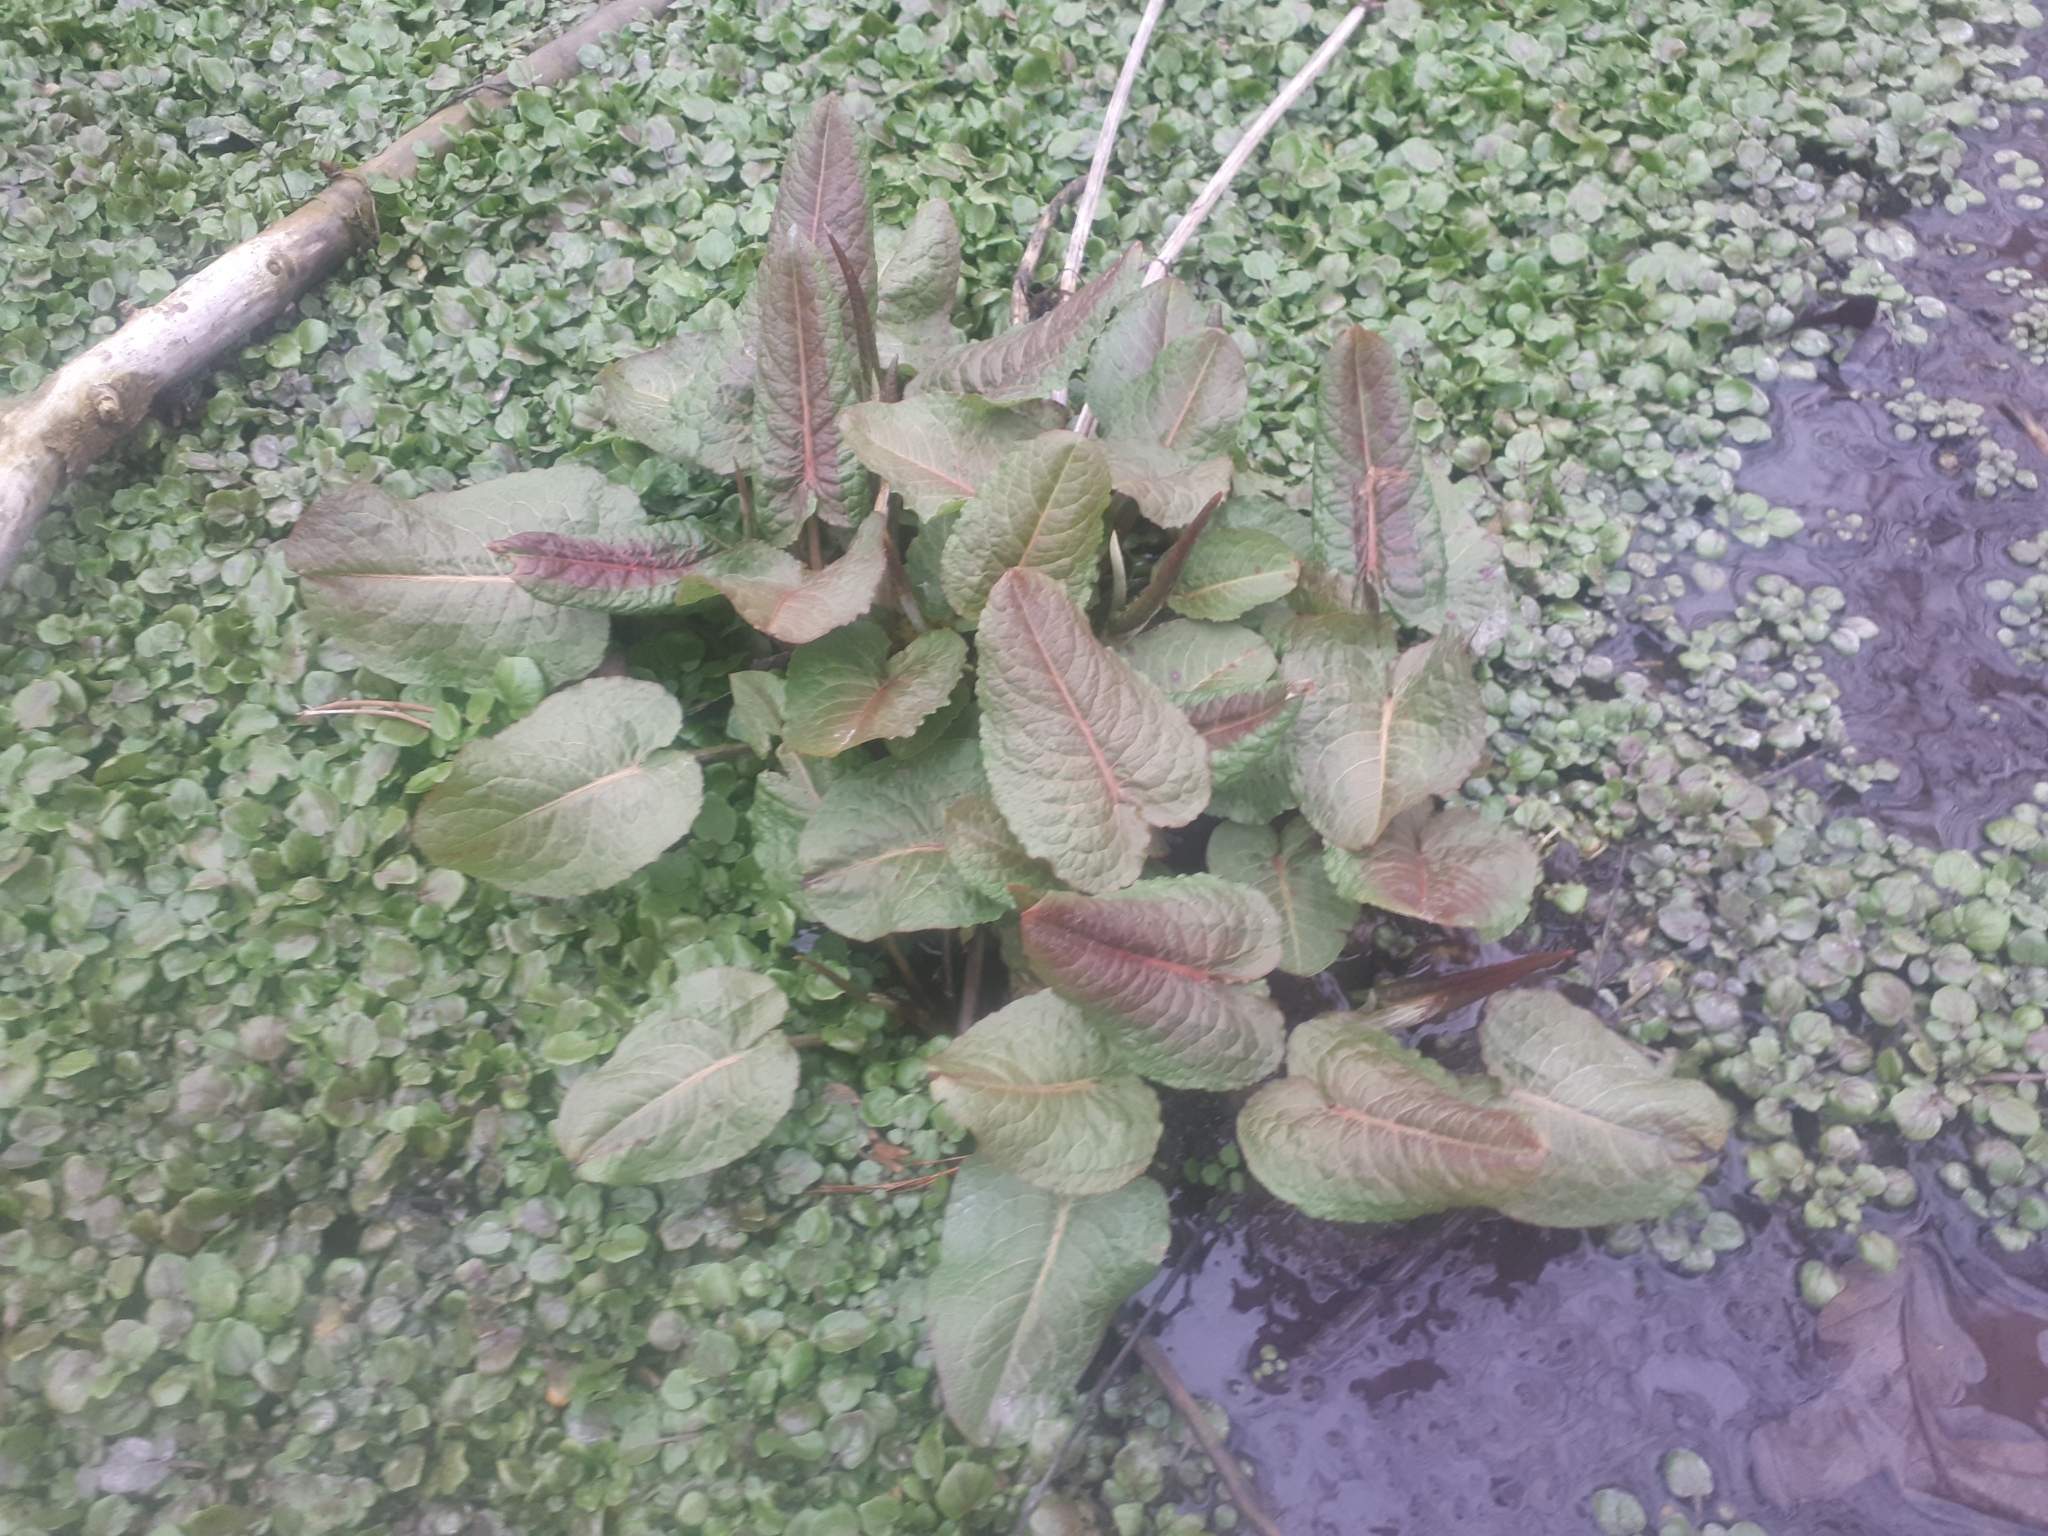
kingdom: Plantae
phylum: Tracheophyta
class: Magnoliopsida
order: Caryophyllales
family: Polygonaceae
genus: Rumex
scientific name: Rumex obtusifolius
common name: Bitter dock
